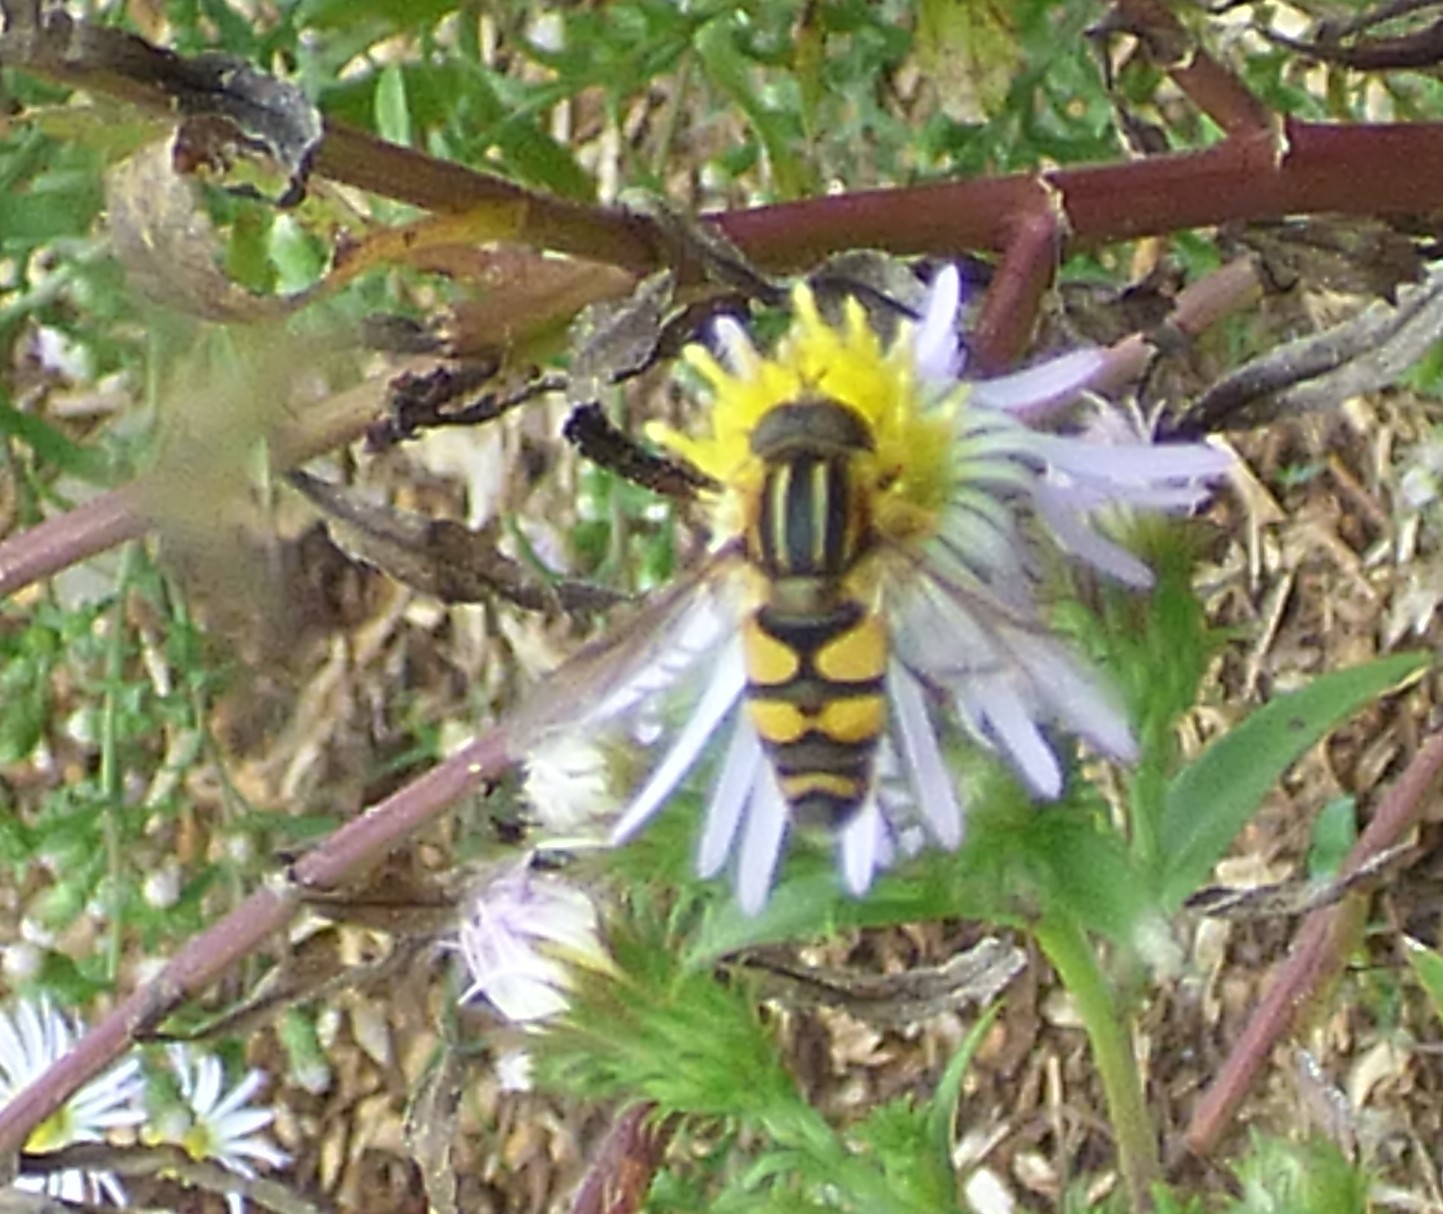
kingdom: Animalia
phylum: Arthropoda
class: Insecta
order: Diptera
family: Syrphidae
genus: Helophilus
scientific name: Helophilus fasciatus
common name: Narrow-headed marsh fly
